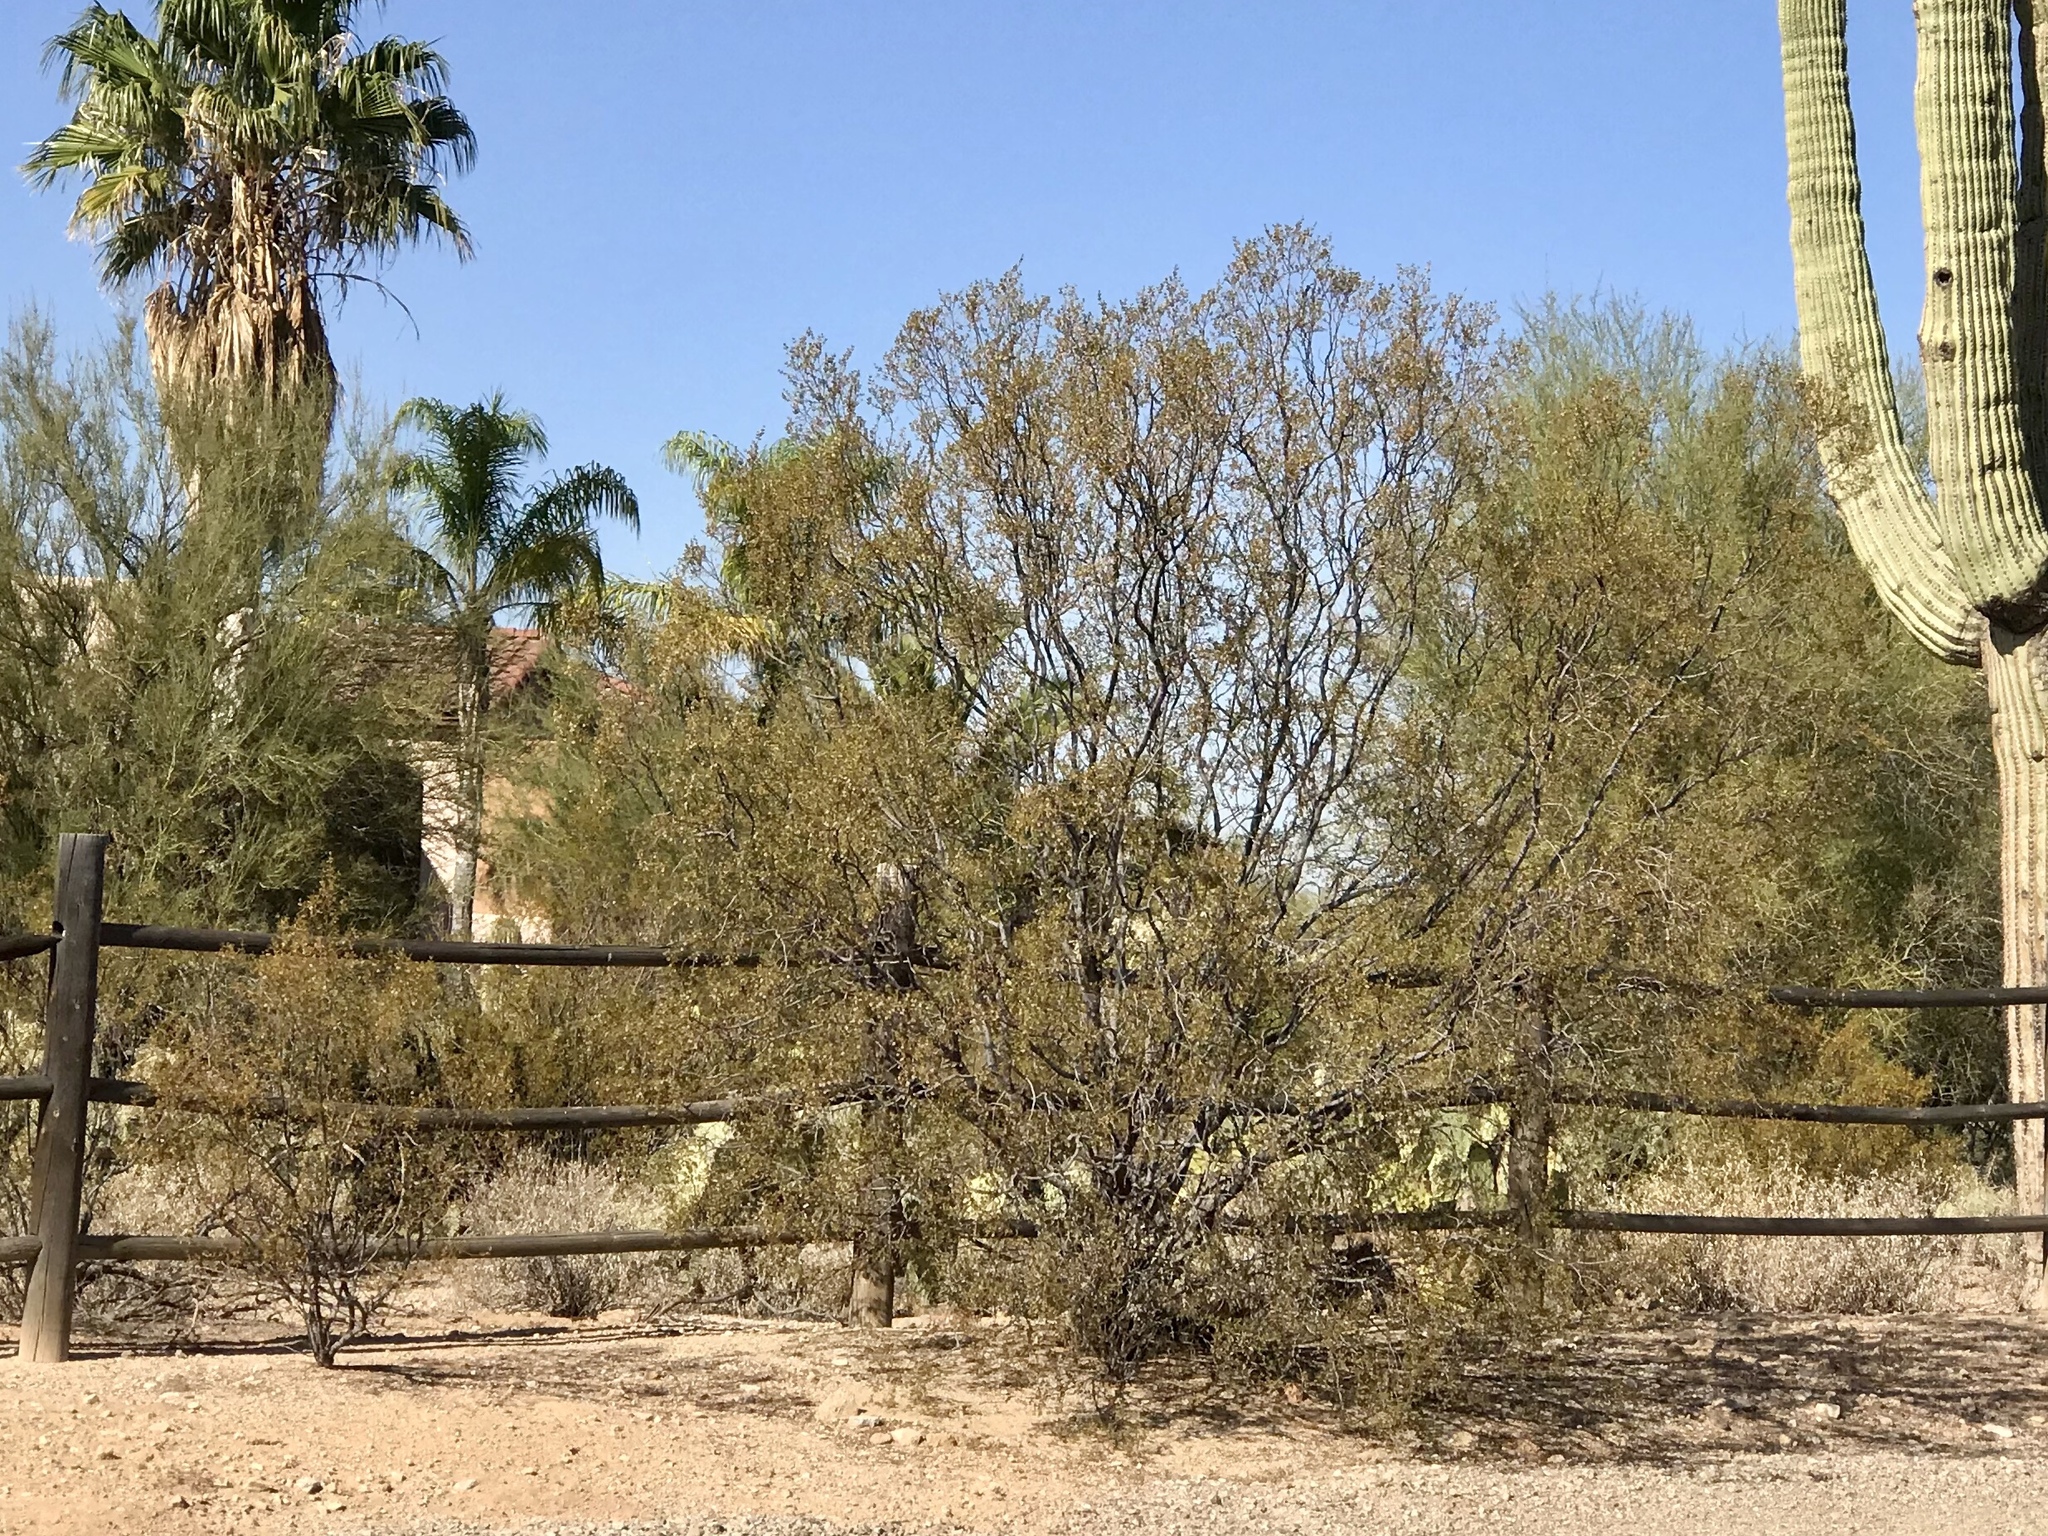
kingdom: Plantae
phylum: Tracheophyta
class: Magnoliopsida
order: Zygophyllales
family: Zygophyllaceae
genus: Larrea
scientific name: Larrea tridentata
